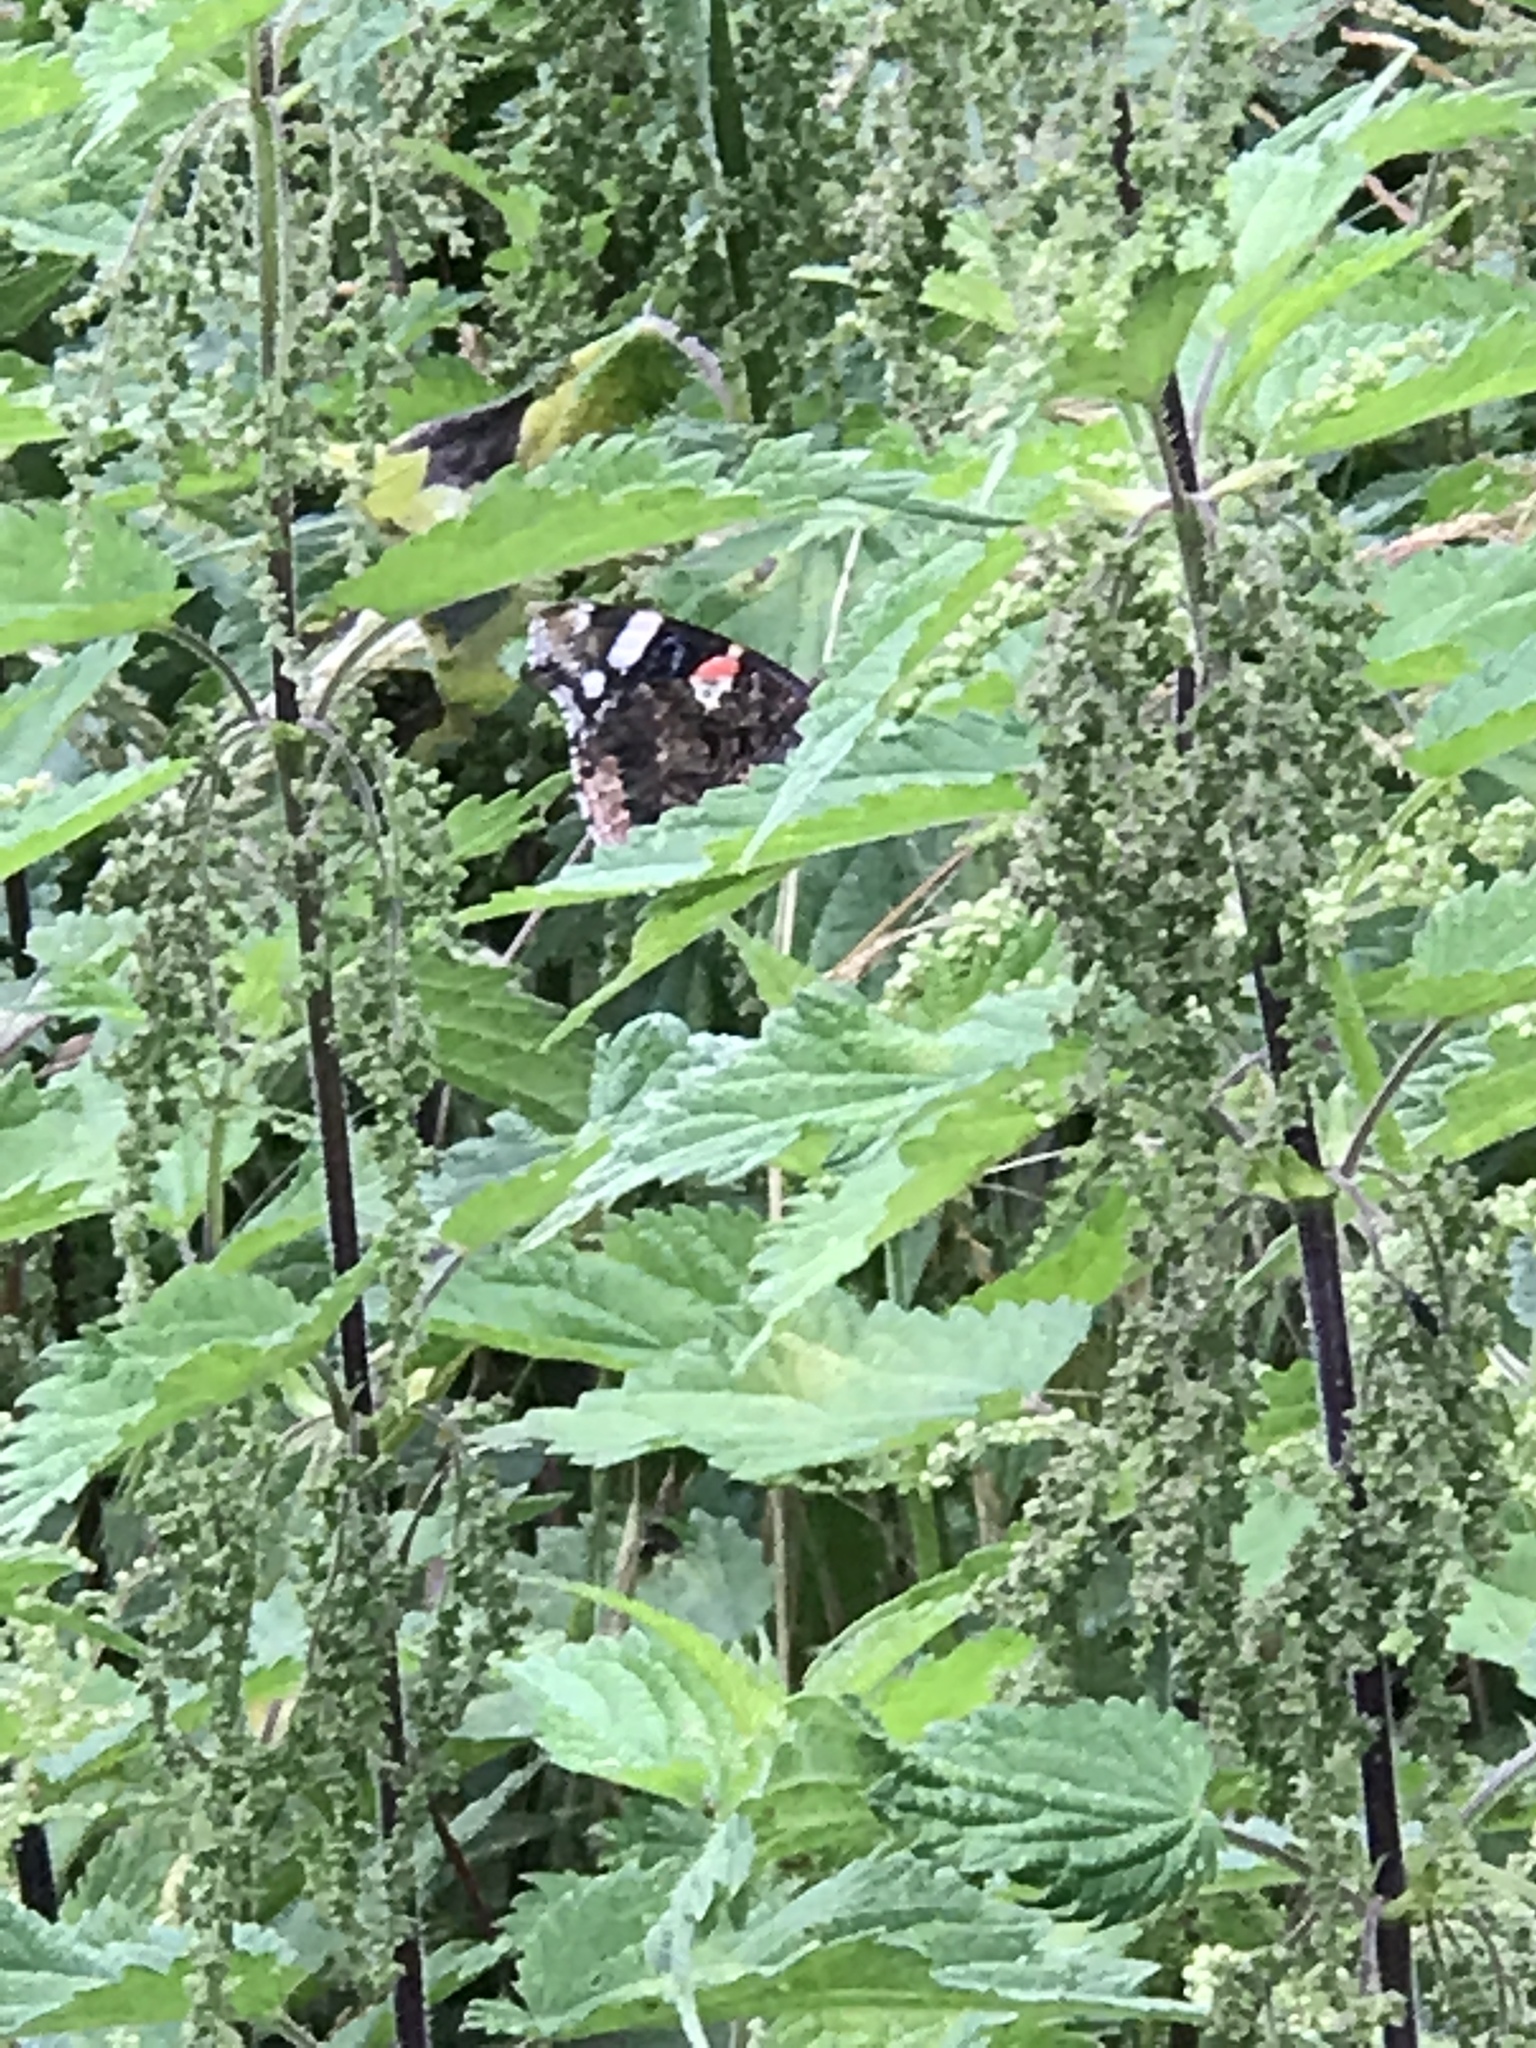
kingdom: Animalia
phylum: Arthropoda
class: Insecta
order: Lepidoptera
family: Nymphalidae
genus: Vanessa
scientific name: Vanessa atalanta
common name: Red admiral
